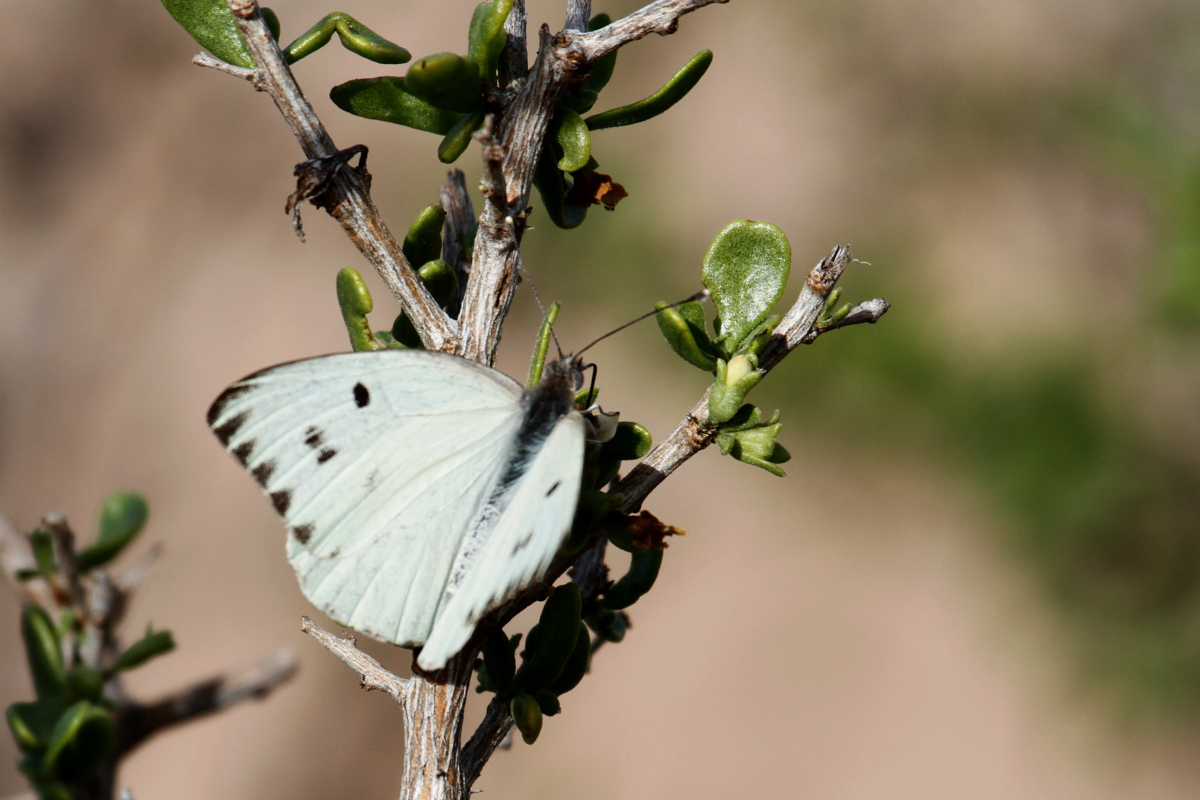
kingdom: Animalia
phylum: Arthropoda
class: Insecta
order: Lepidoptera
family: Pieridae
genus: Ganyra
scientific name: Ganyra howarthi
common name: Howarth's white
